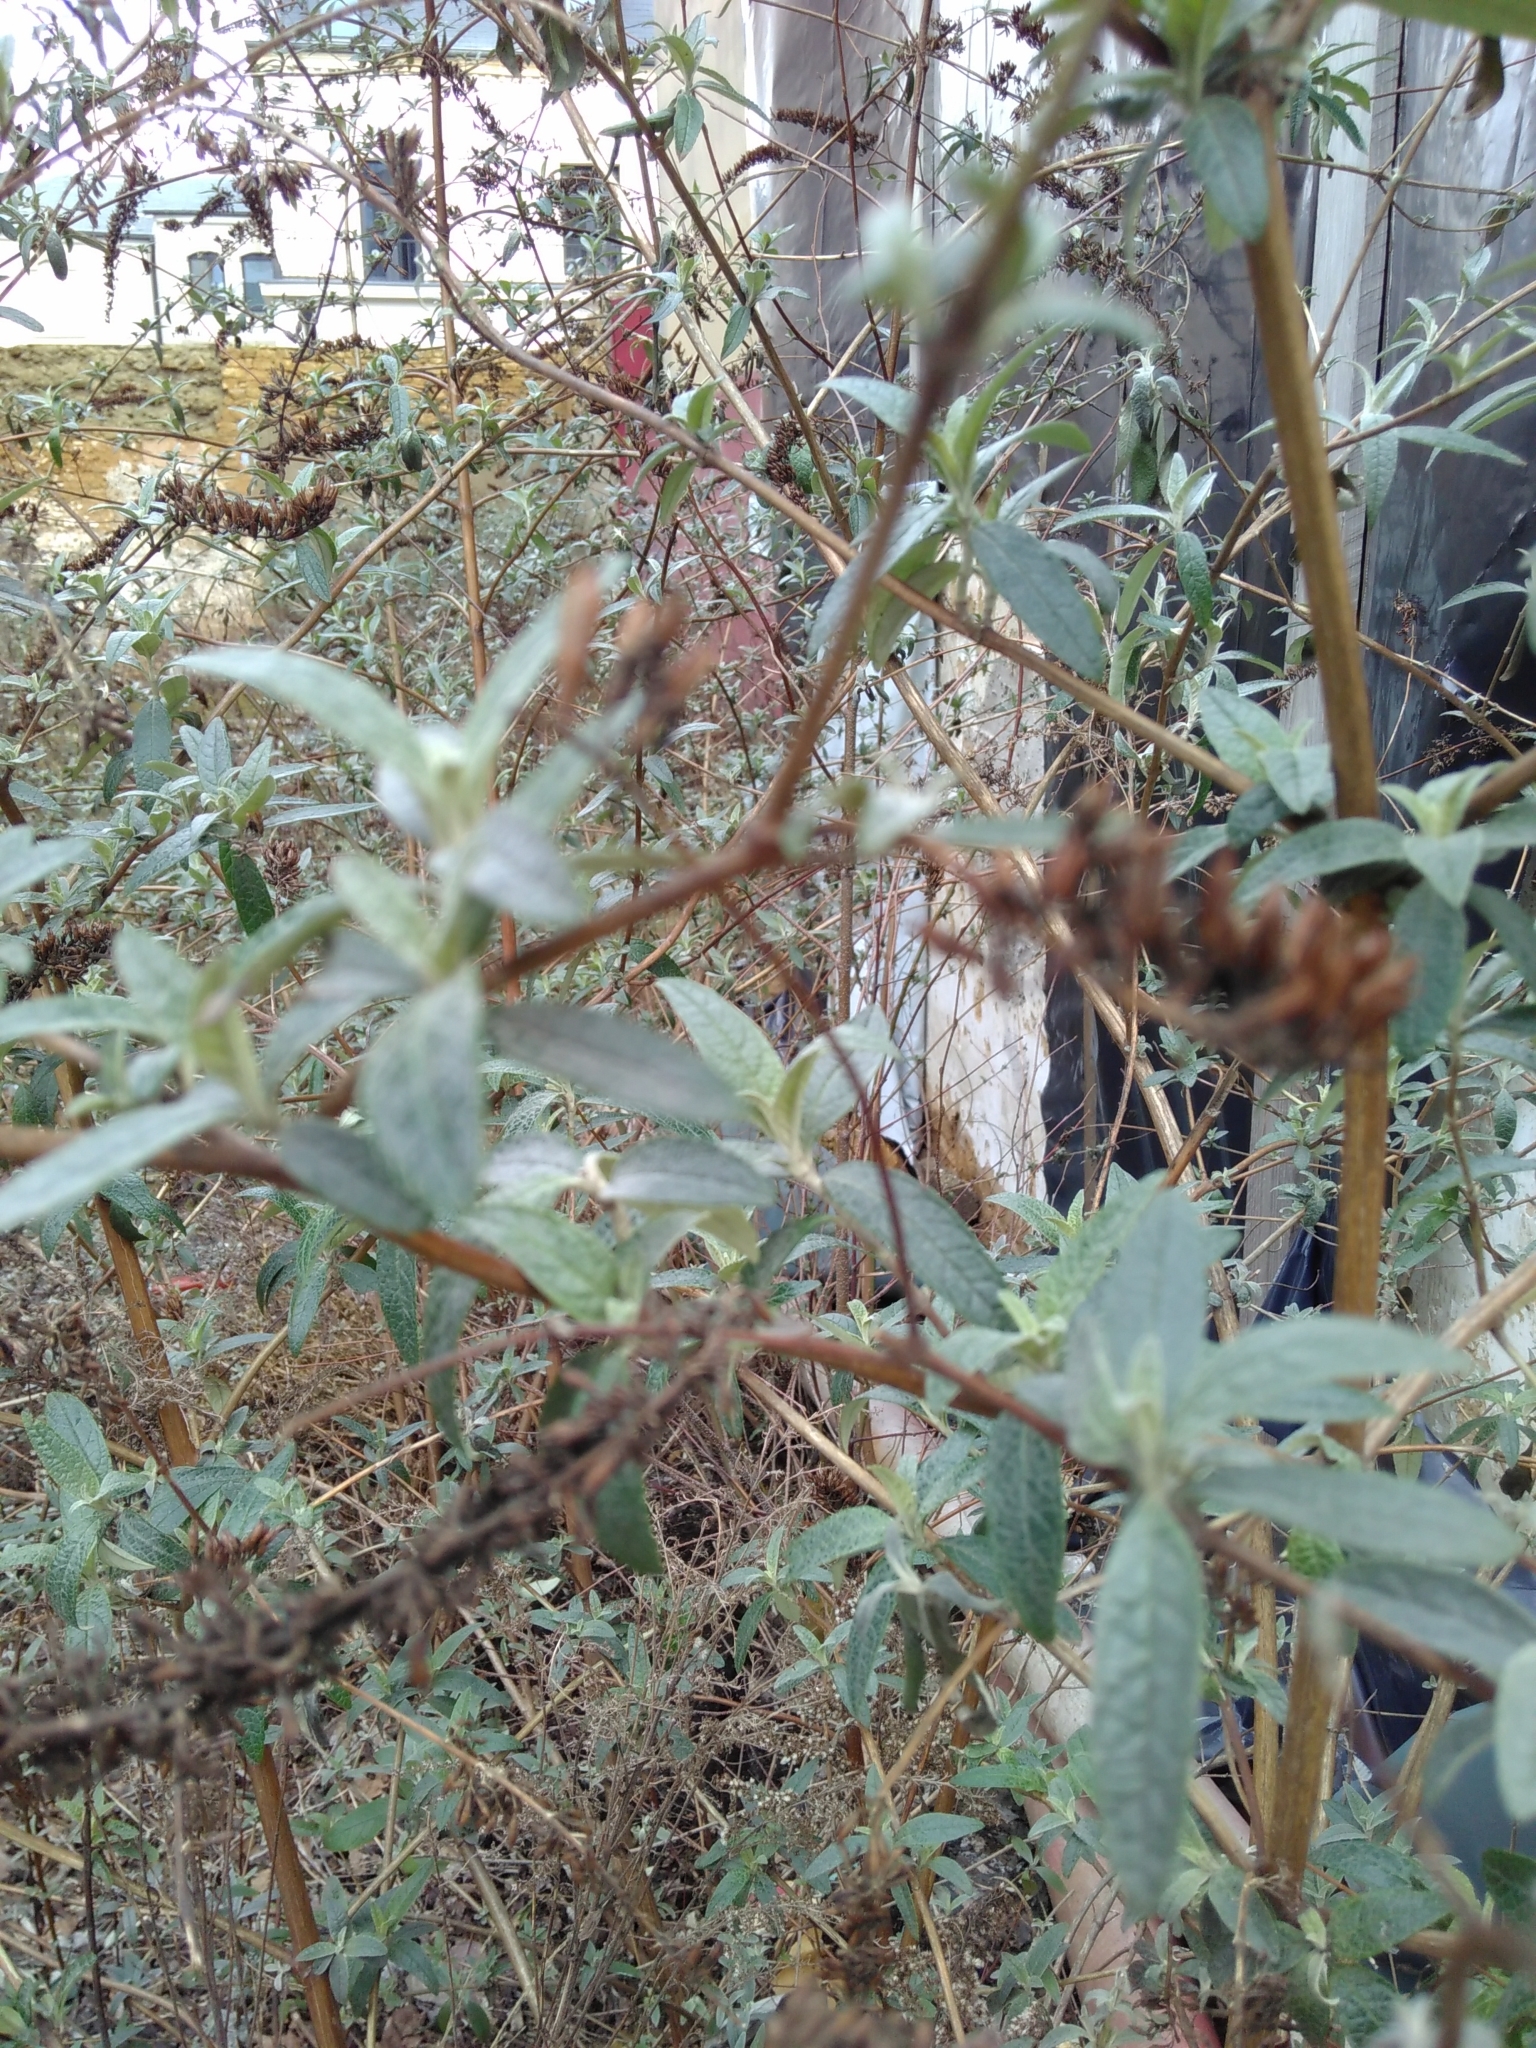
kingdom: Plantae
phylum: Tracheophyta
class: Magnoliopsida
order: Lamiales
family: Scrophulariaceae
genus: Buddleja
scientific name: Buddleja davidii
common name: Butterfly-bush
